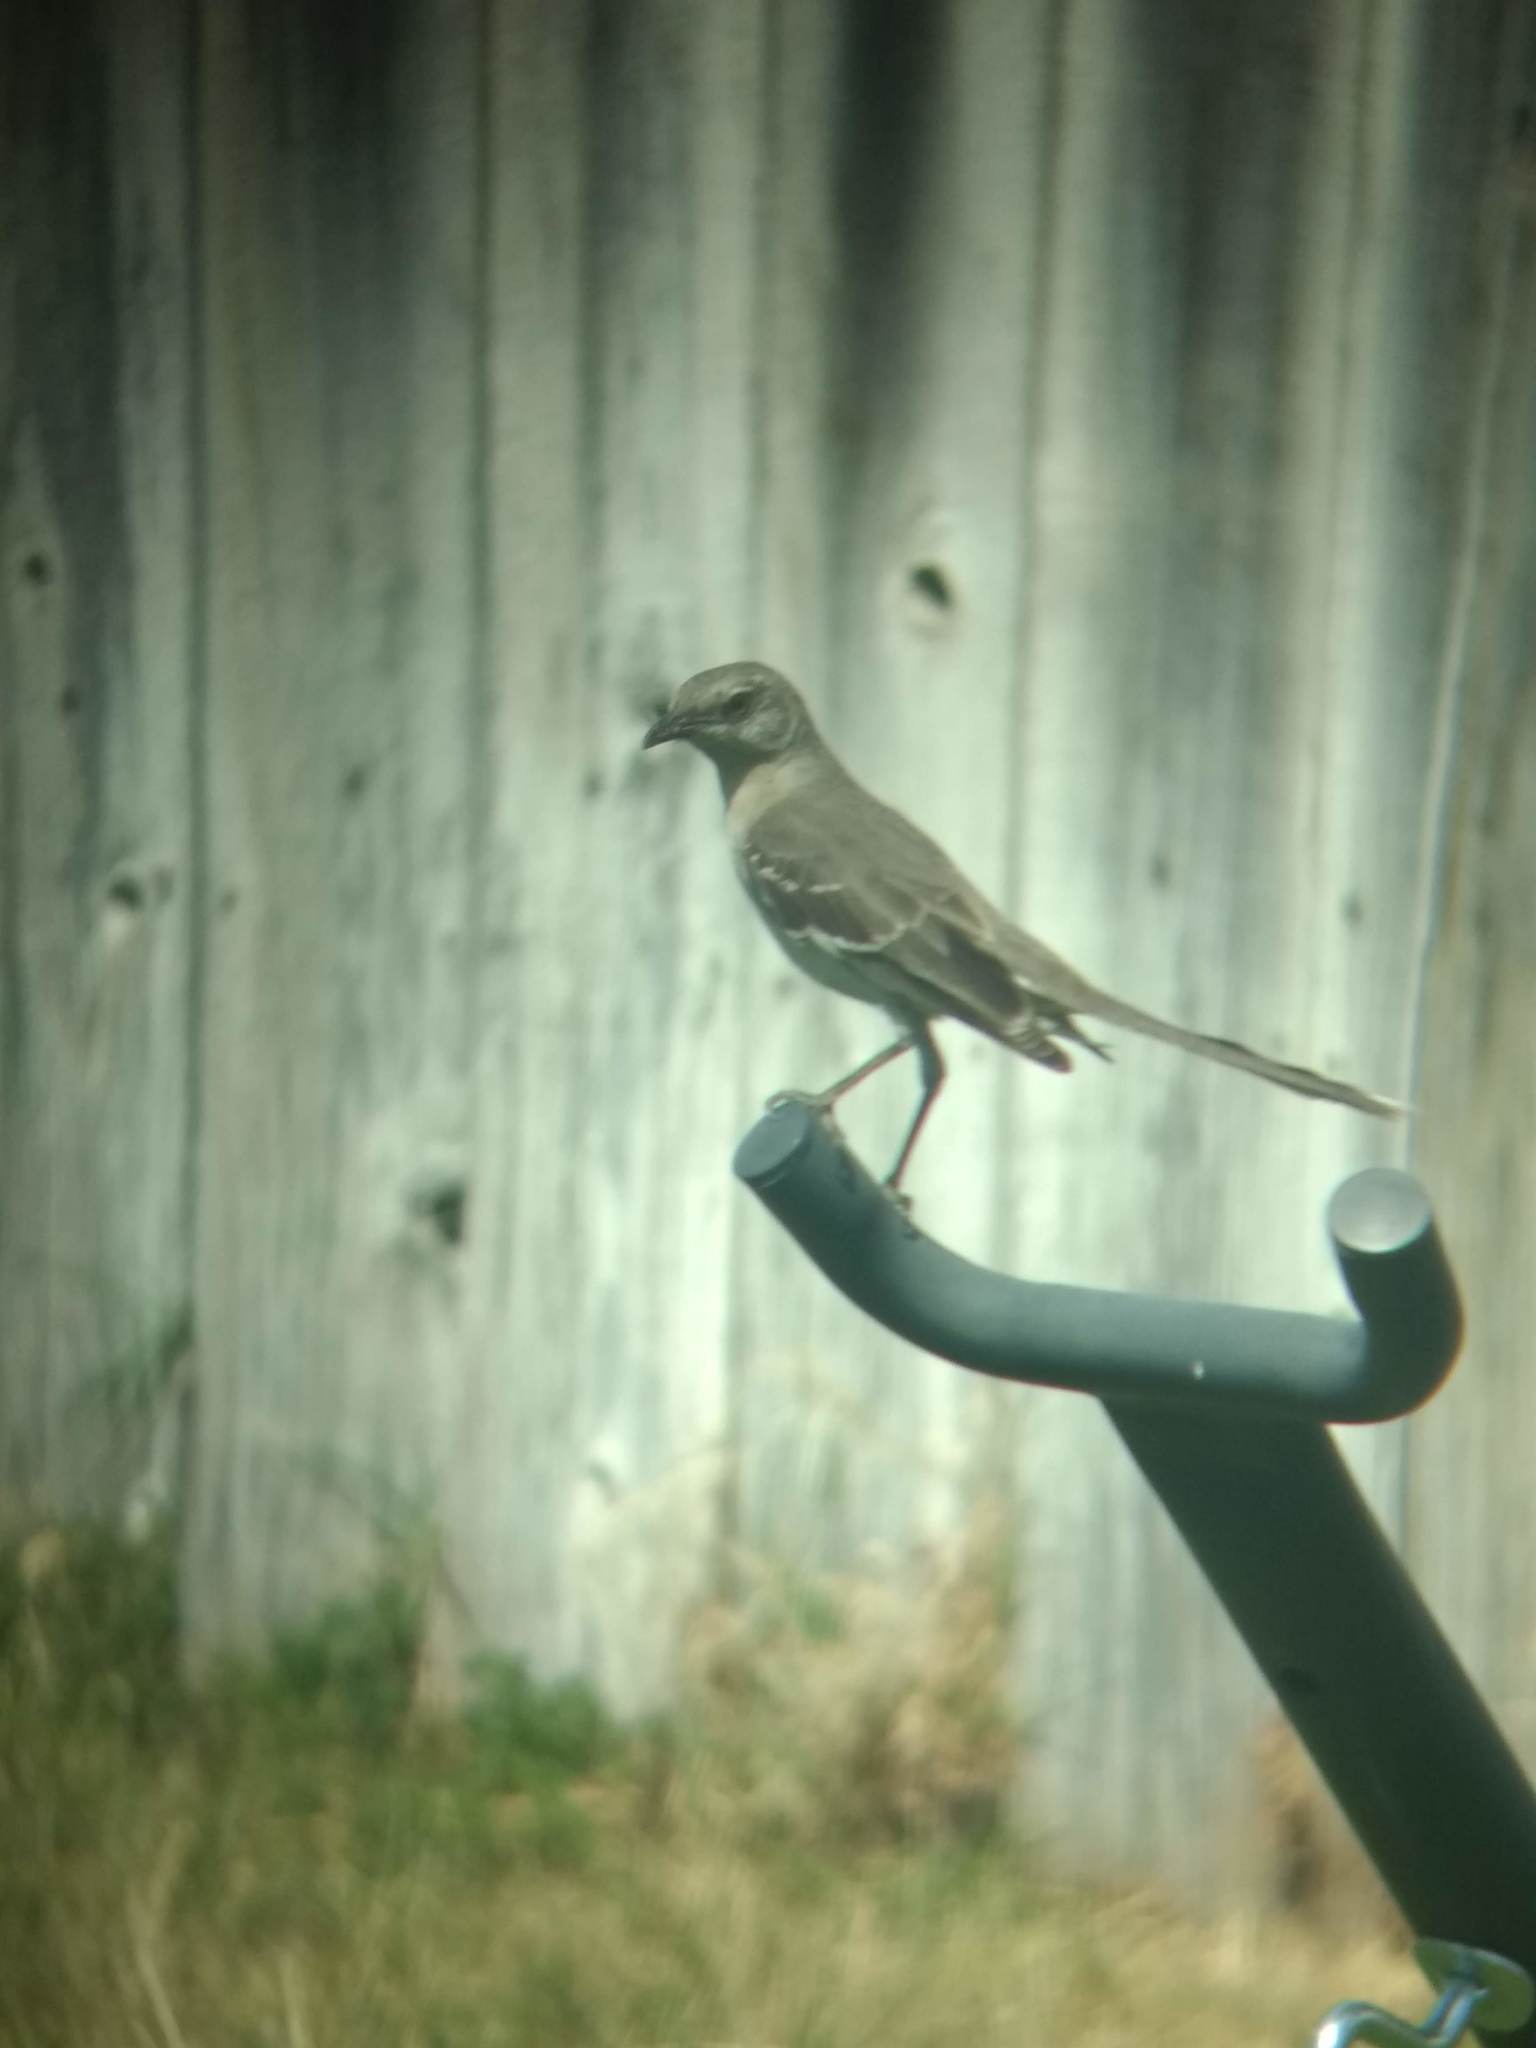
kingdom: Animalia
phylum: Chordata
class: Aves
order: Passeriformes
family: Mimidae
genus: Mimus
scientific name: Mimus polyglottos
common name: Northern mockingbird
